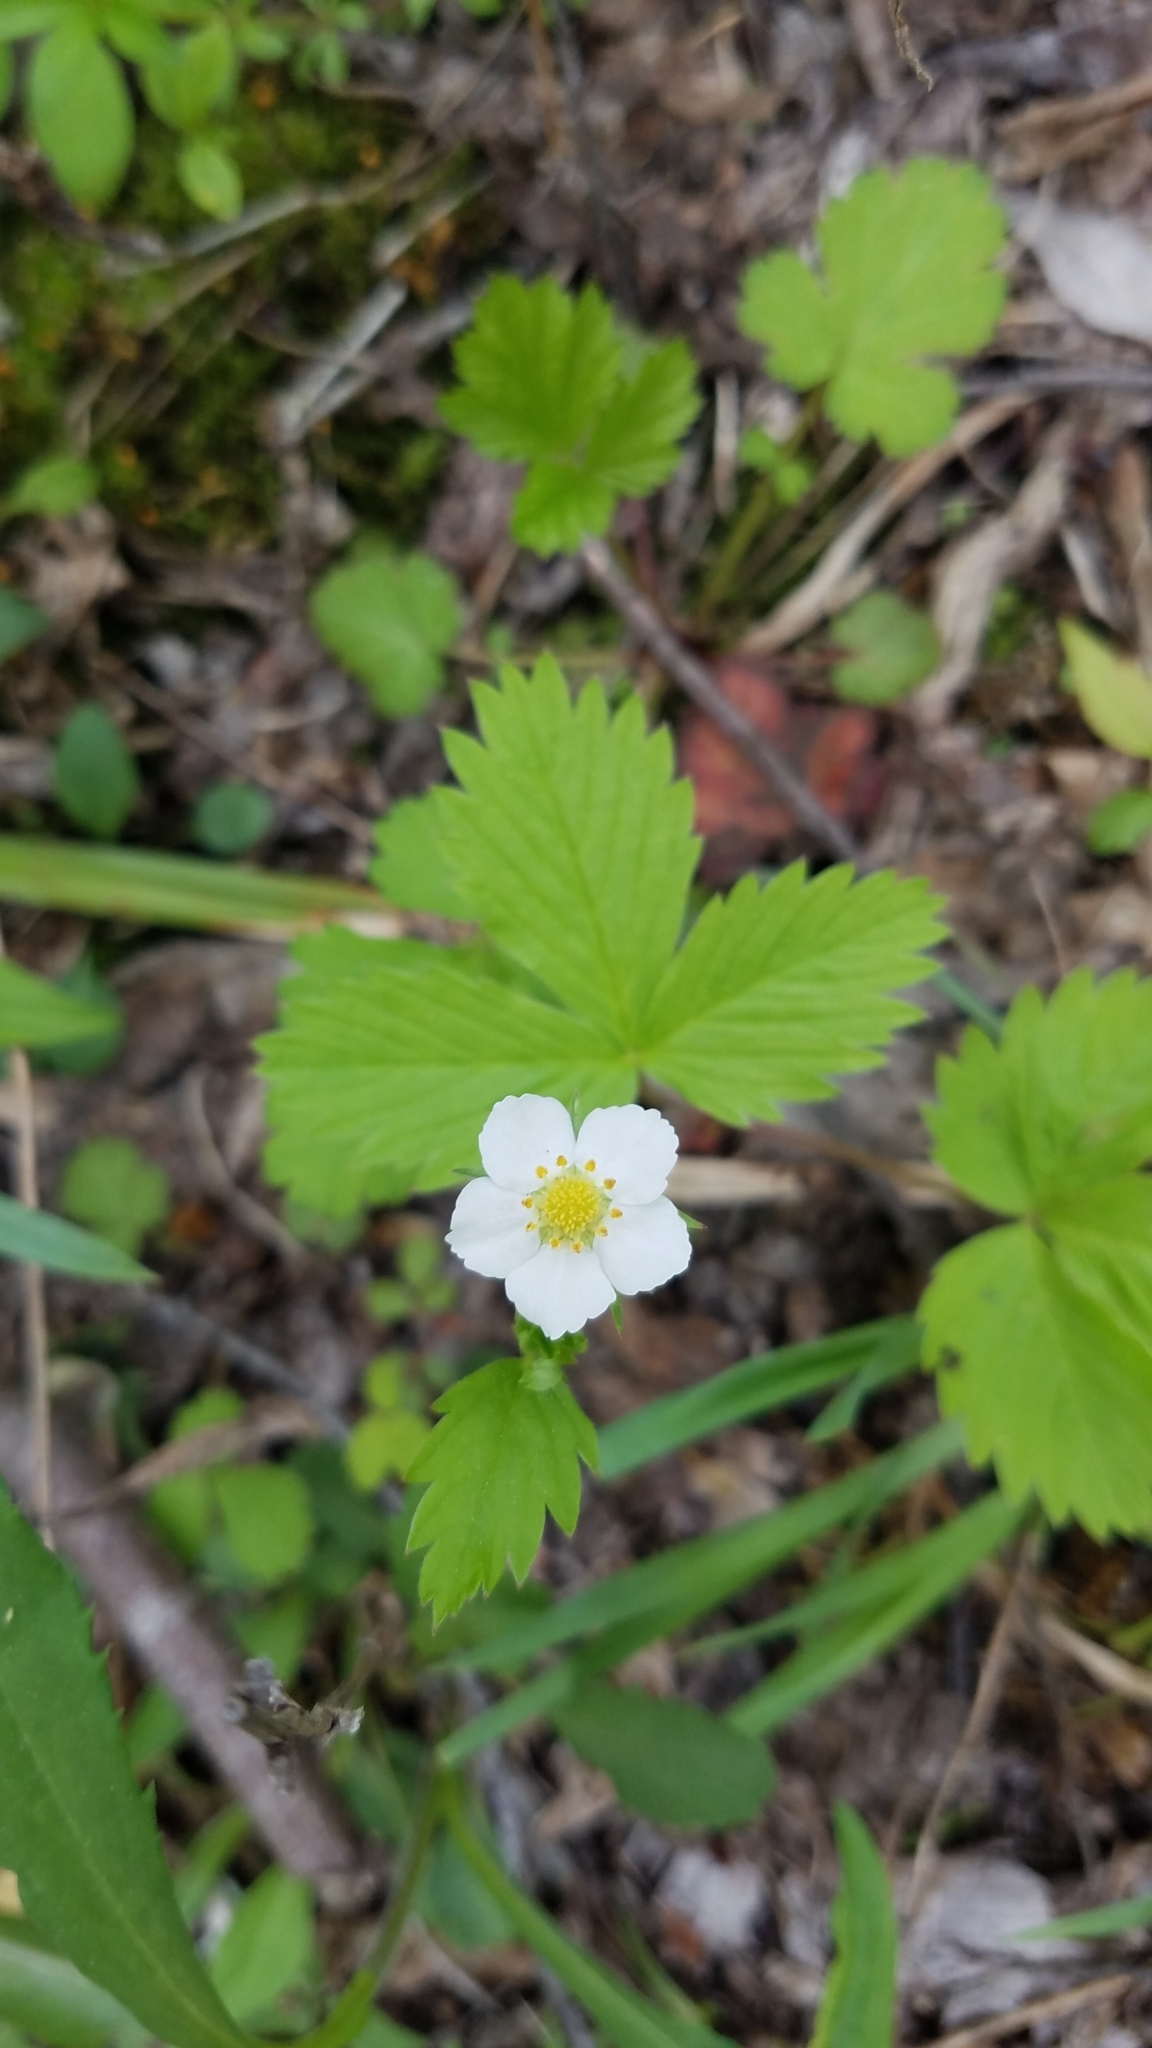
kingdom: Plantae
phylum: Tracheophyta
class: Magnoliopsida
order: Rosales
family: Rosaceae
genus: Fragaria
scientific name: Fragaria vesca
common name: Wild strawberry
